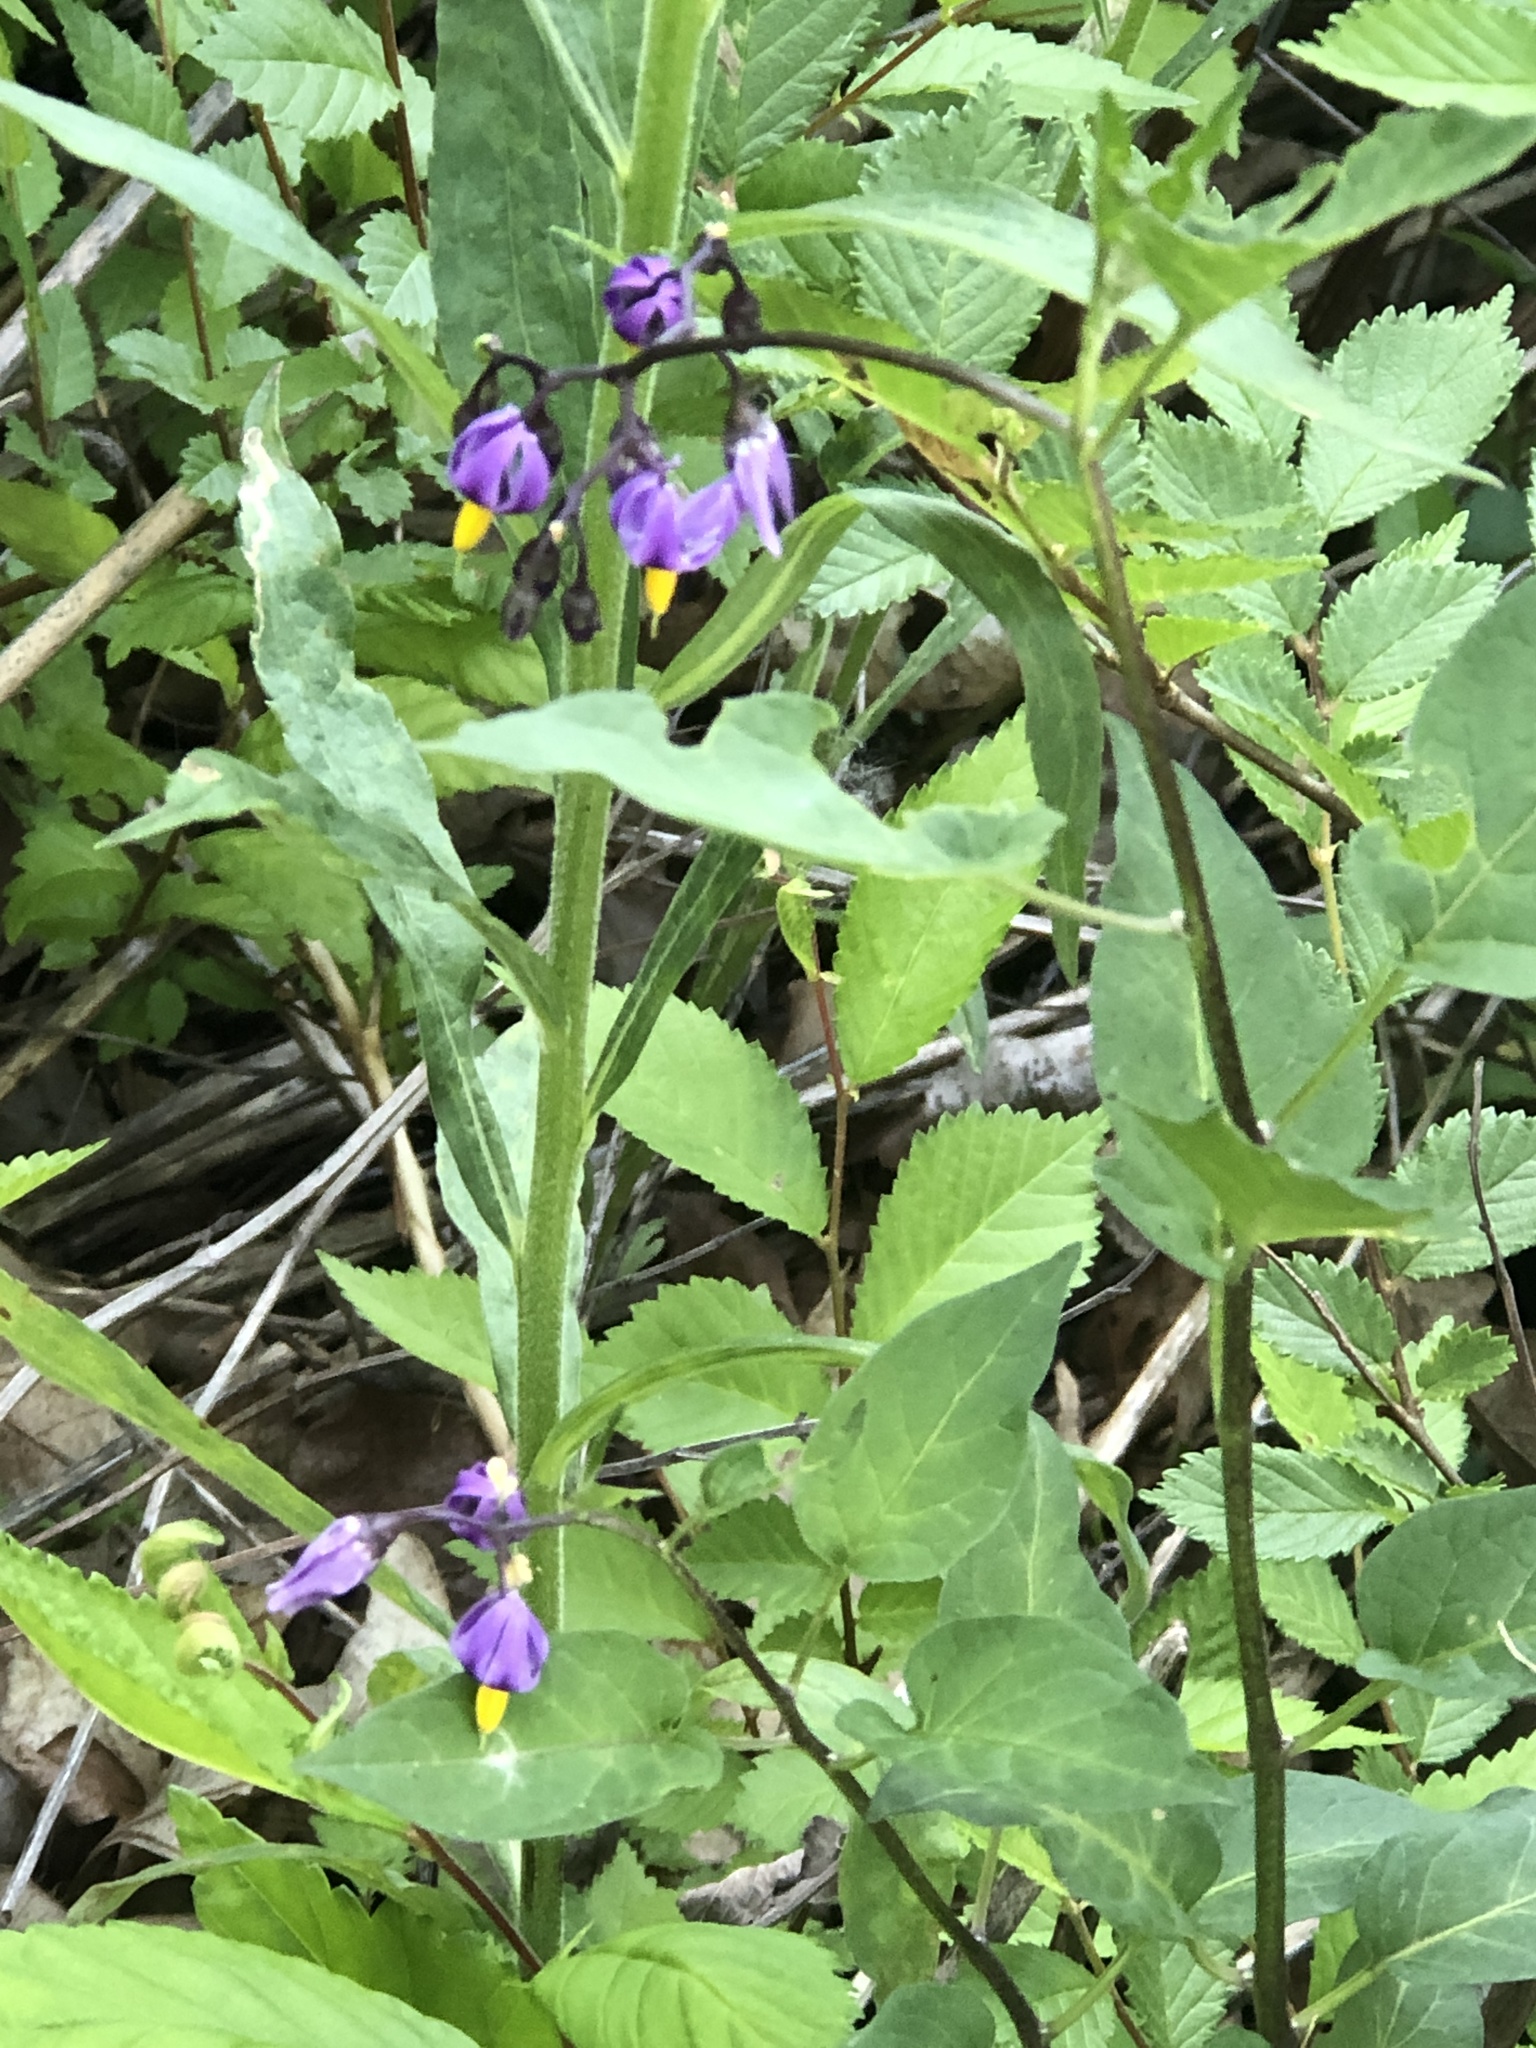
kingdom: Plantae
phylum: Tracheophyta
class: Magnoliopsida
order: Solanales
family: Solanaceae
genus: Solanum
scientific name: Solanum dulcamara
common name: Climbing nightshade
